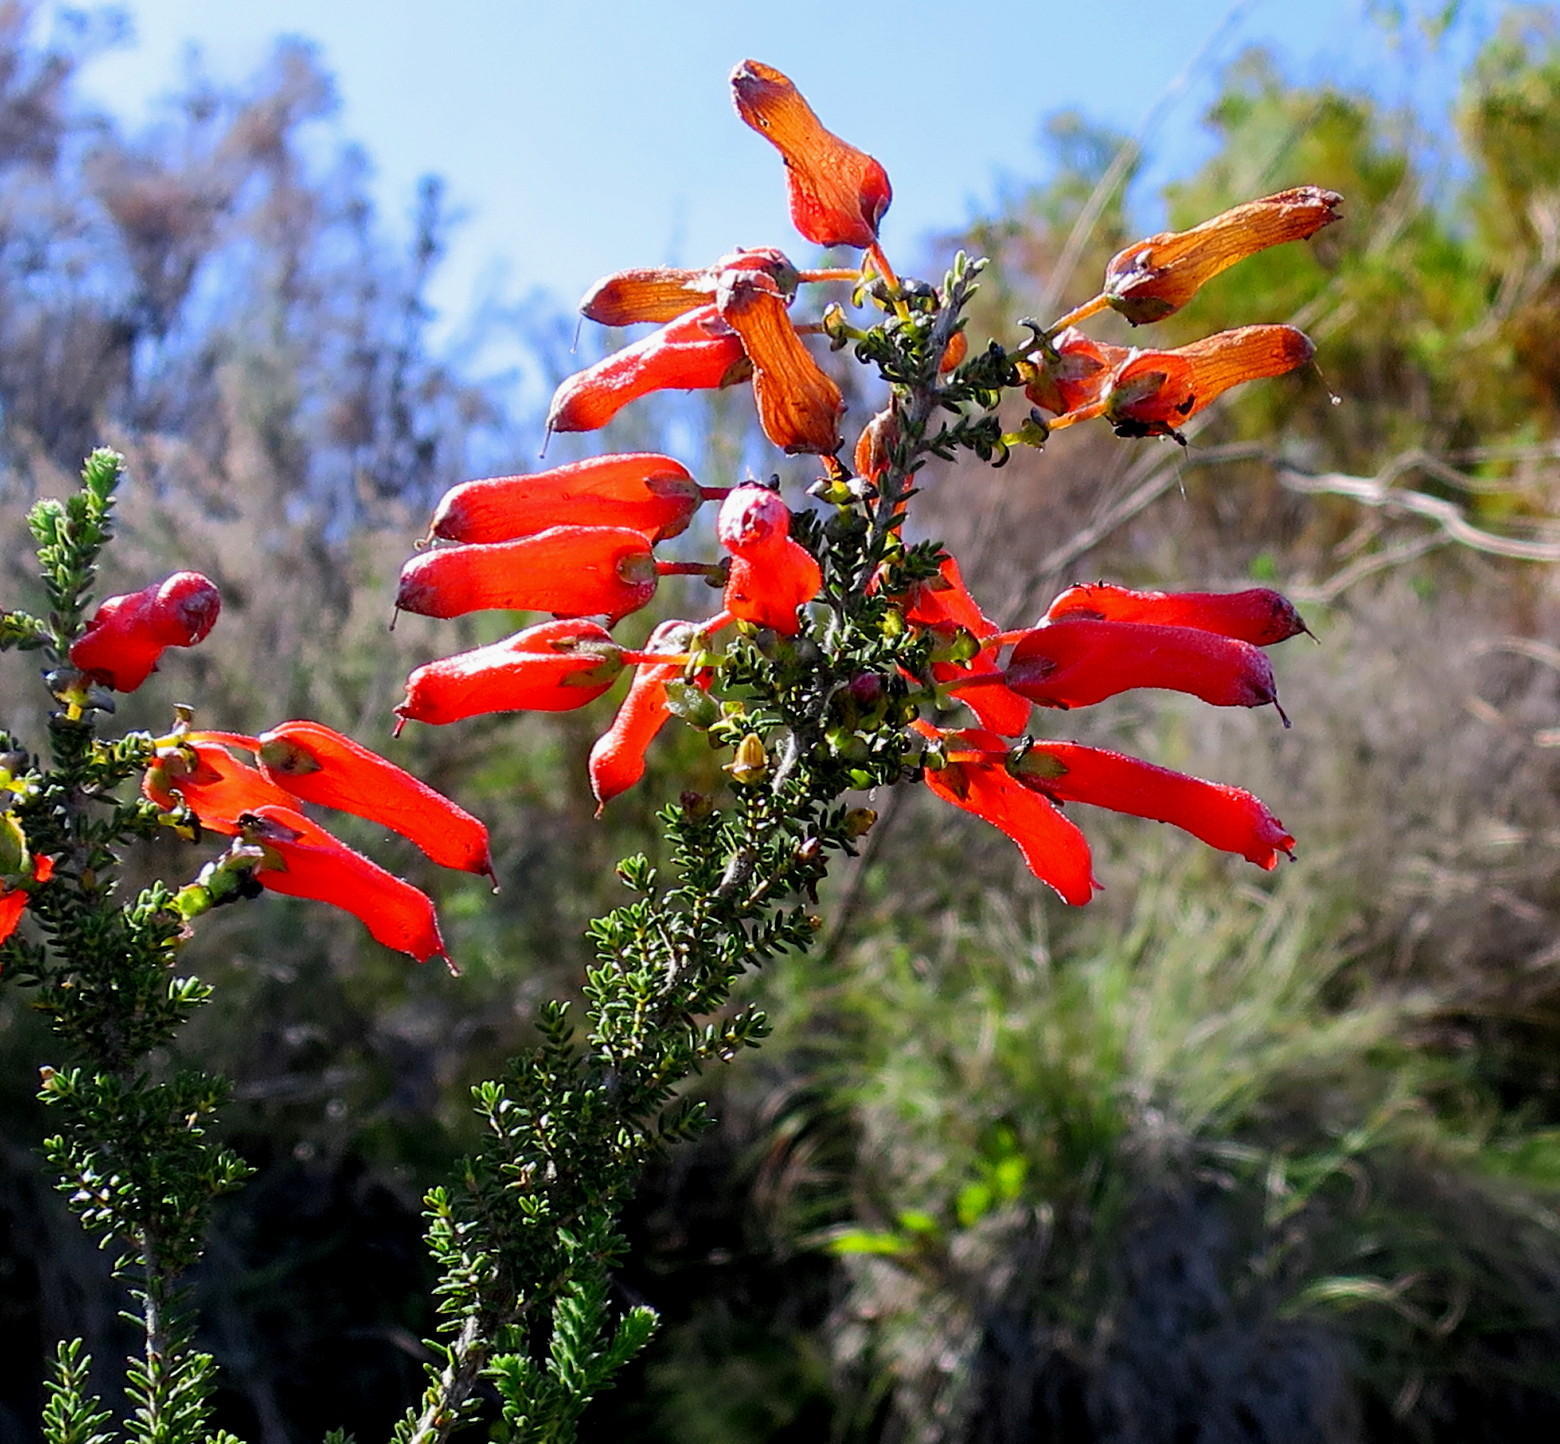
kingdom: Plantae
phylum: Tracheophyta
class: Magnoliopsida
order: Ericales
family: Ericaceae
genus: Erica
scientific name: Erica inordinata
